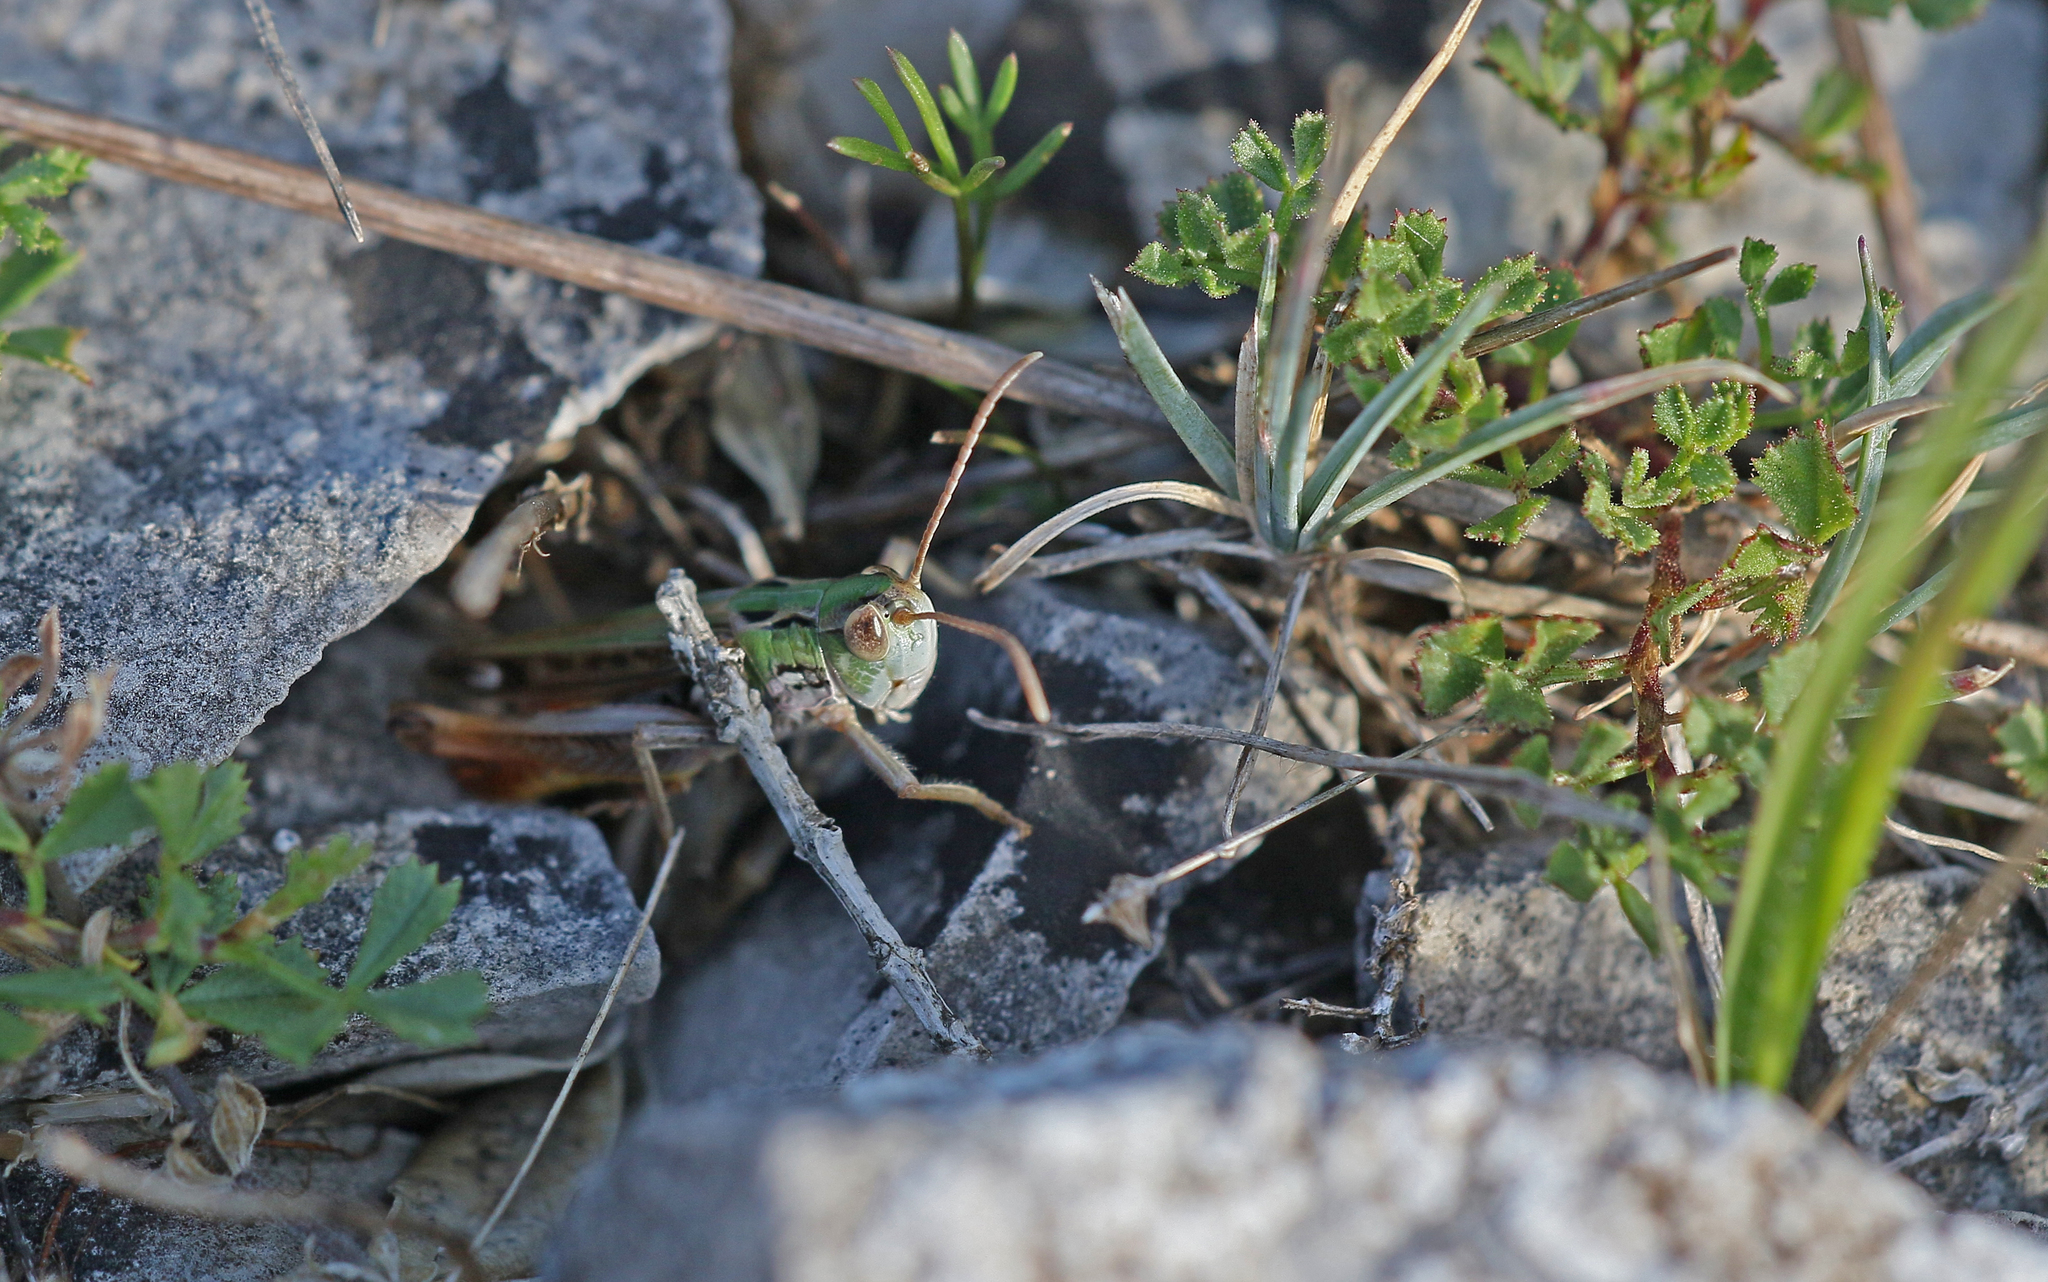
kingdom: Animalia
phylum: Arthropoda
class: Insecta
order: Orthoptera
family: Acrididae
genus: Stenobothrus
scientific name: Stenobothrus nigromaculatus
